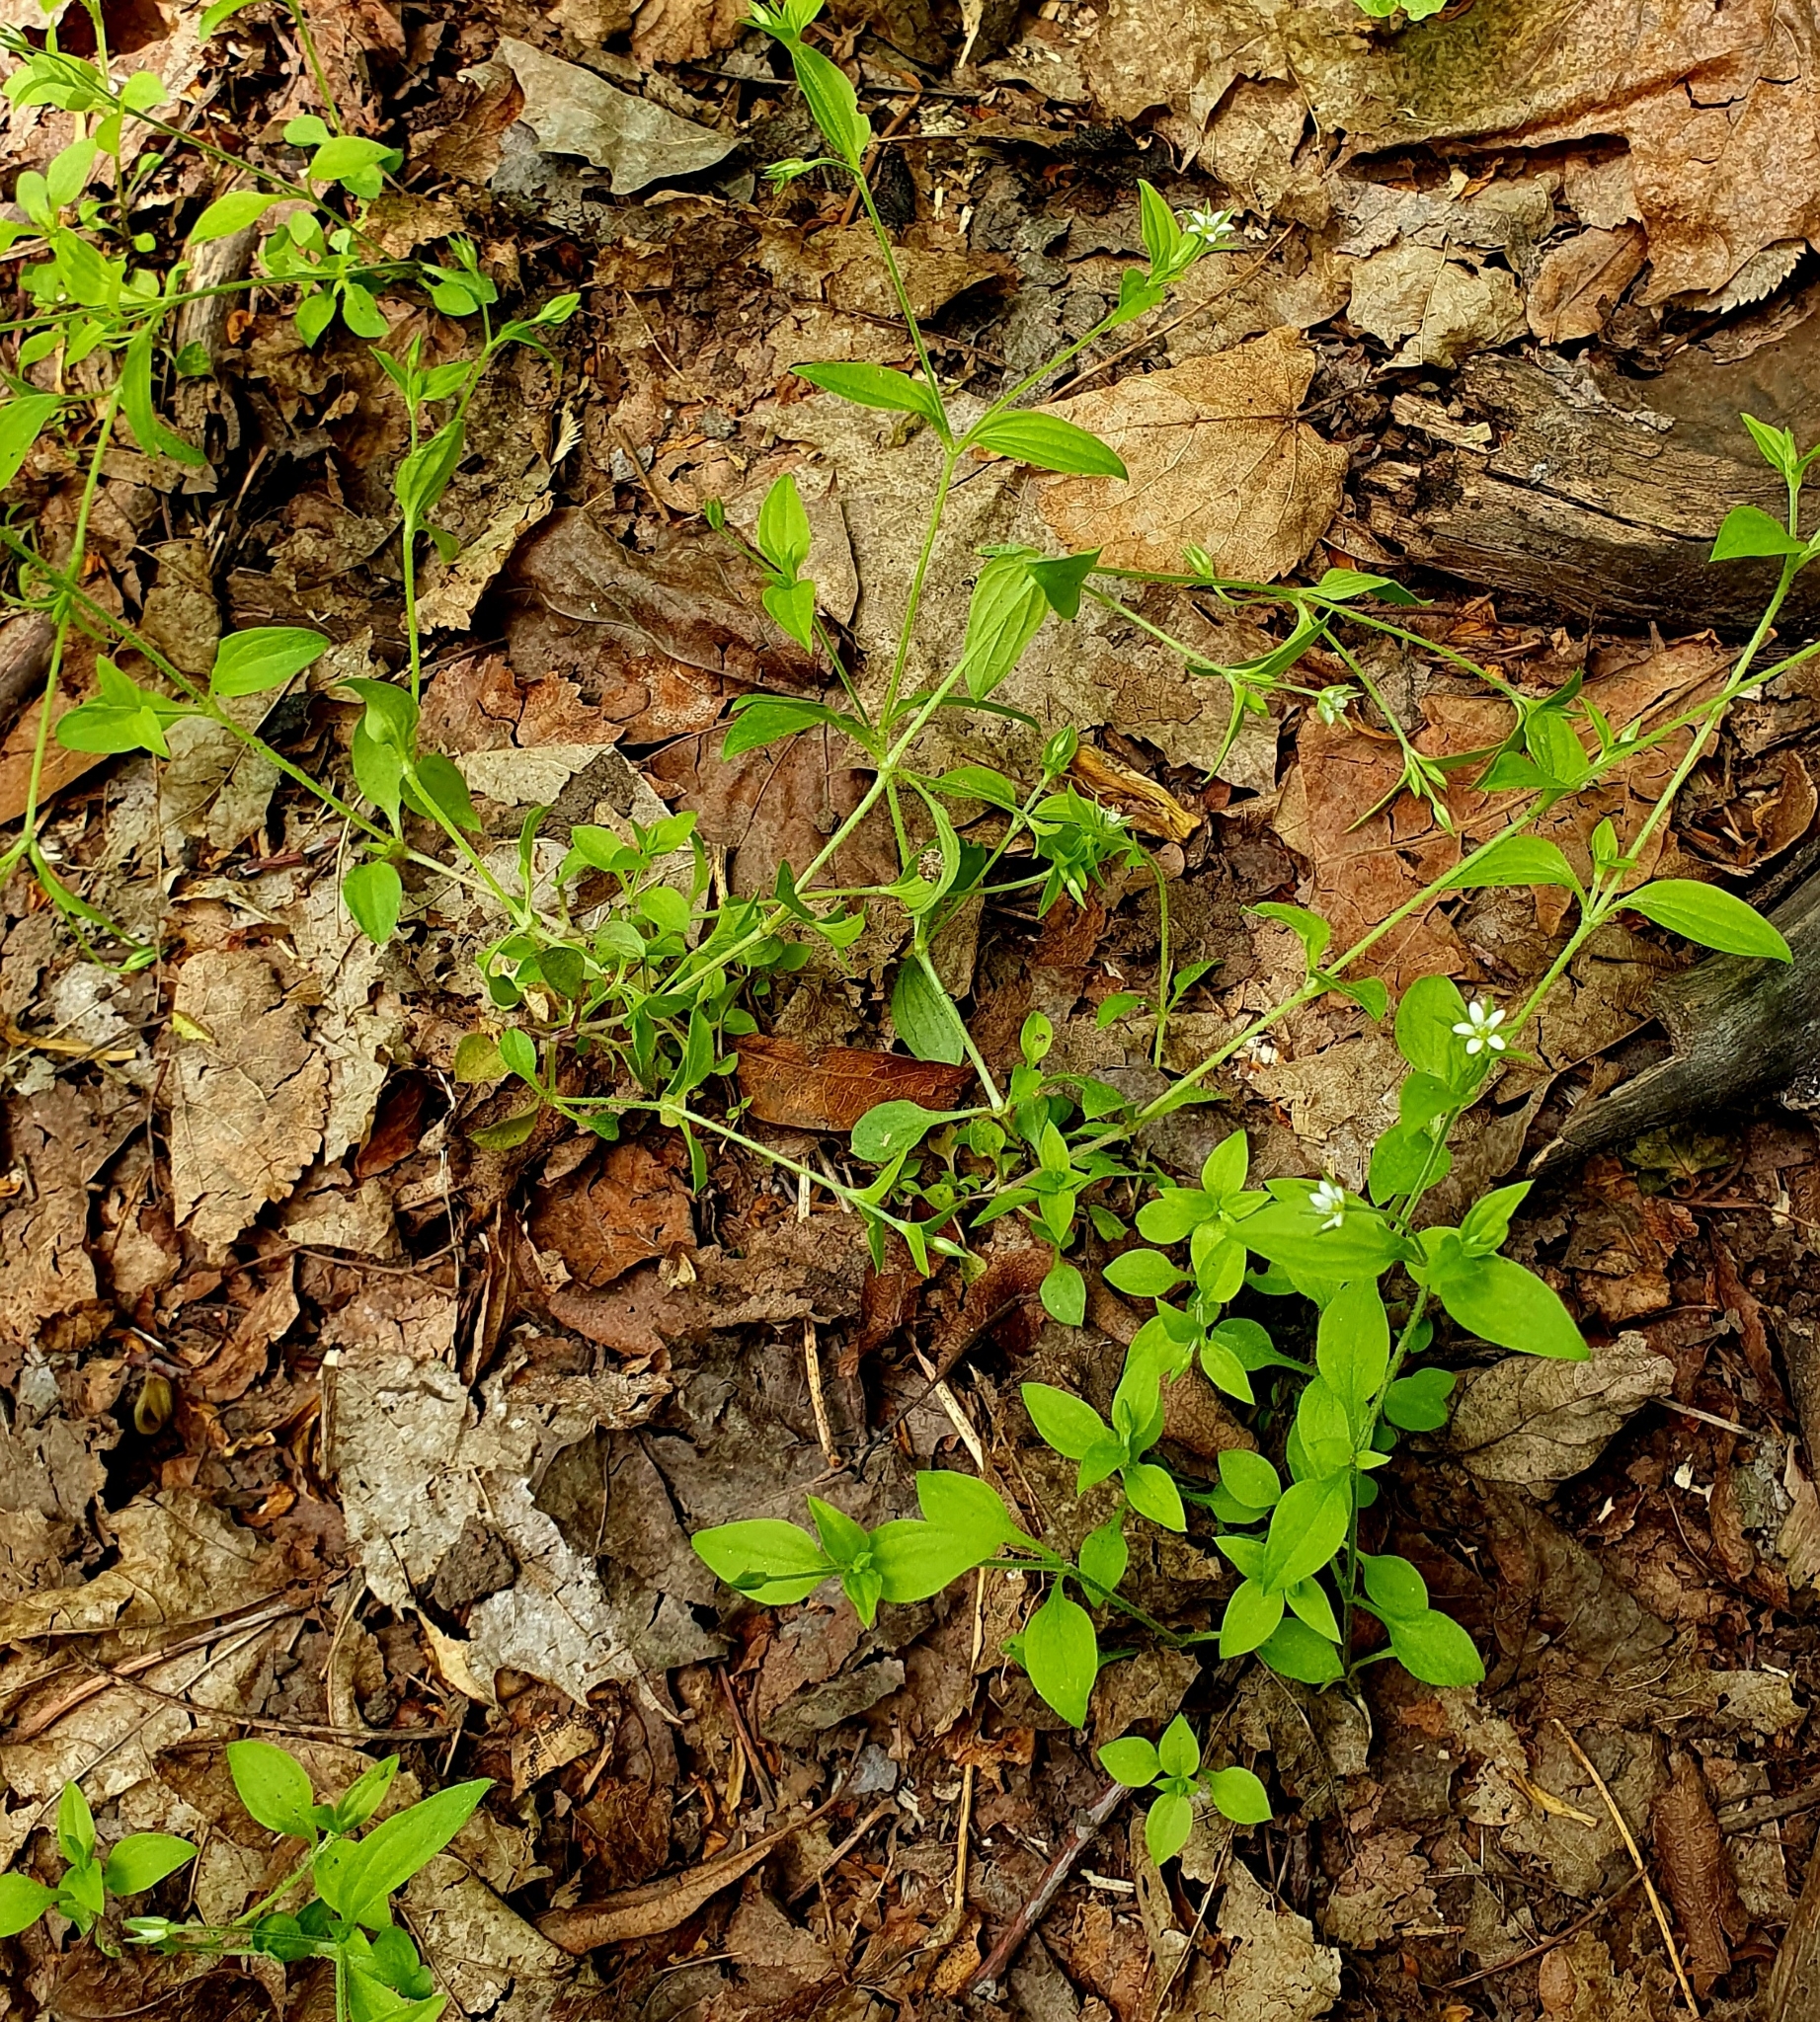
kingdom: Plantae
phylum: Tracheophyta
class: Magnoliopsida
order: Caryophyllales
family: Caryophyllaceae
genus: Moehringia
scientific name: Moehringia trinervia
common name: Three-nerved sandwort
